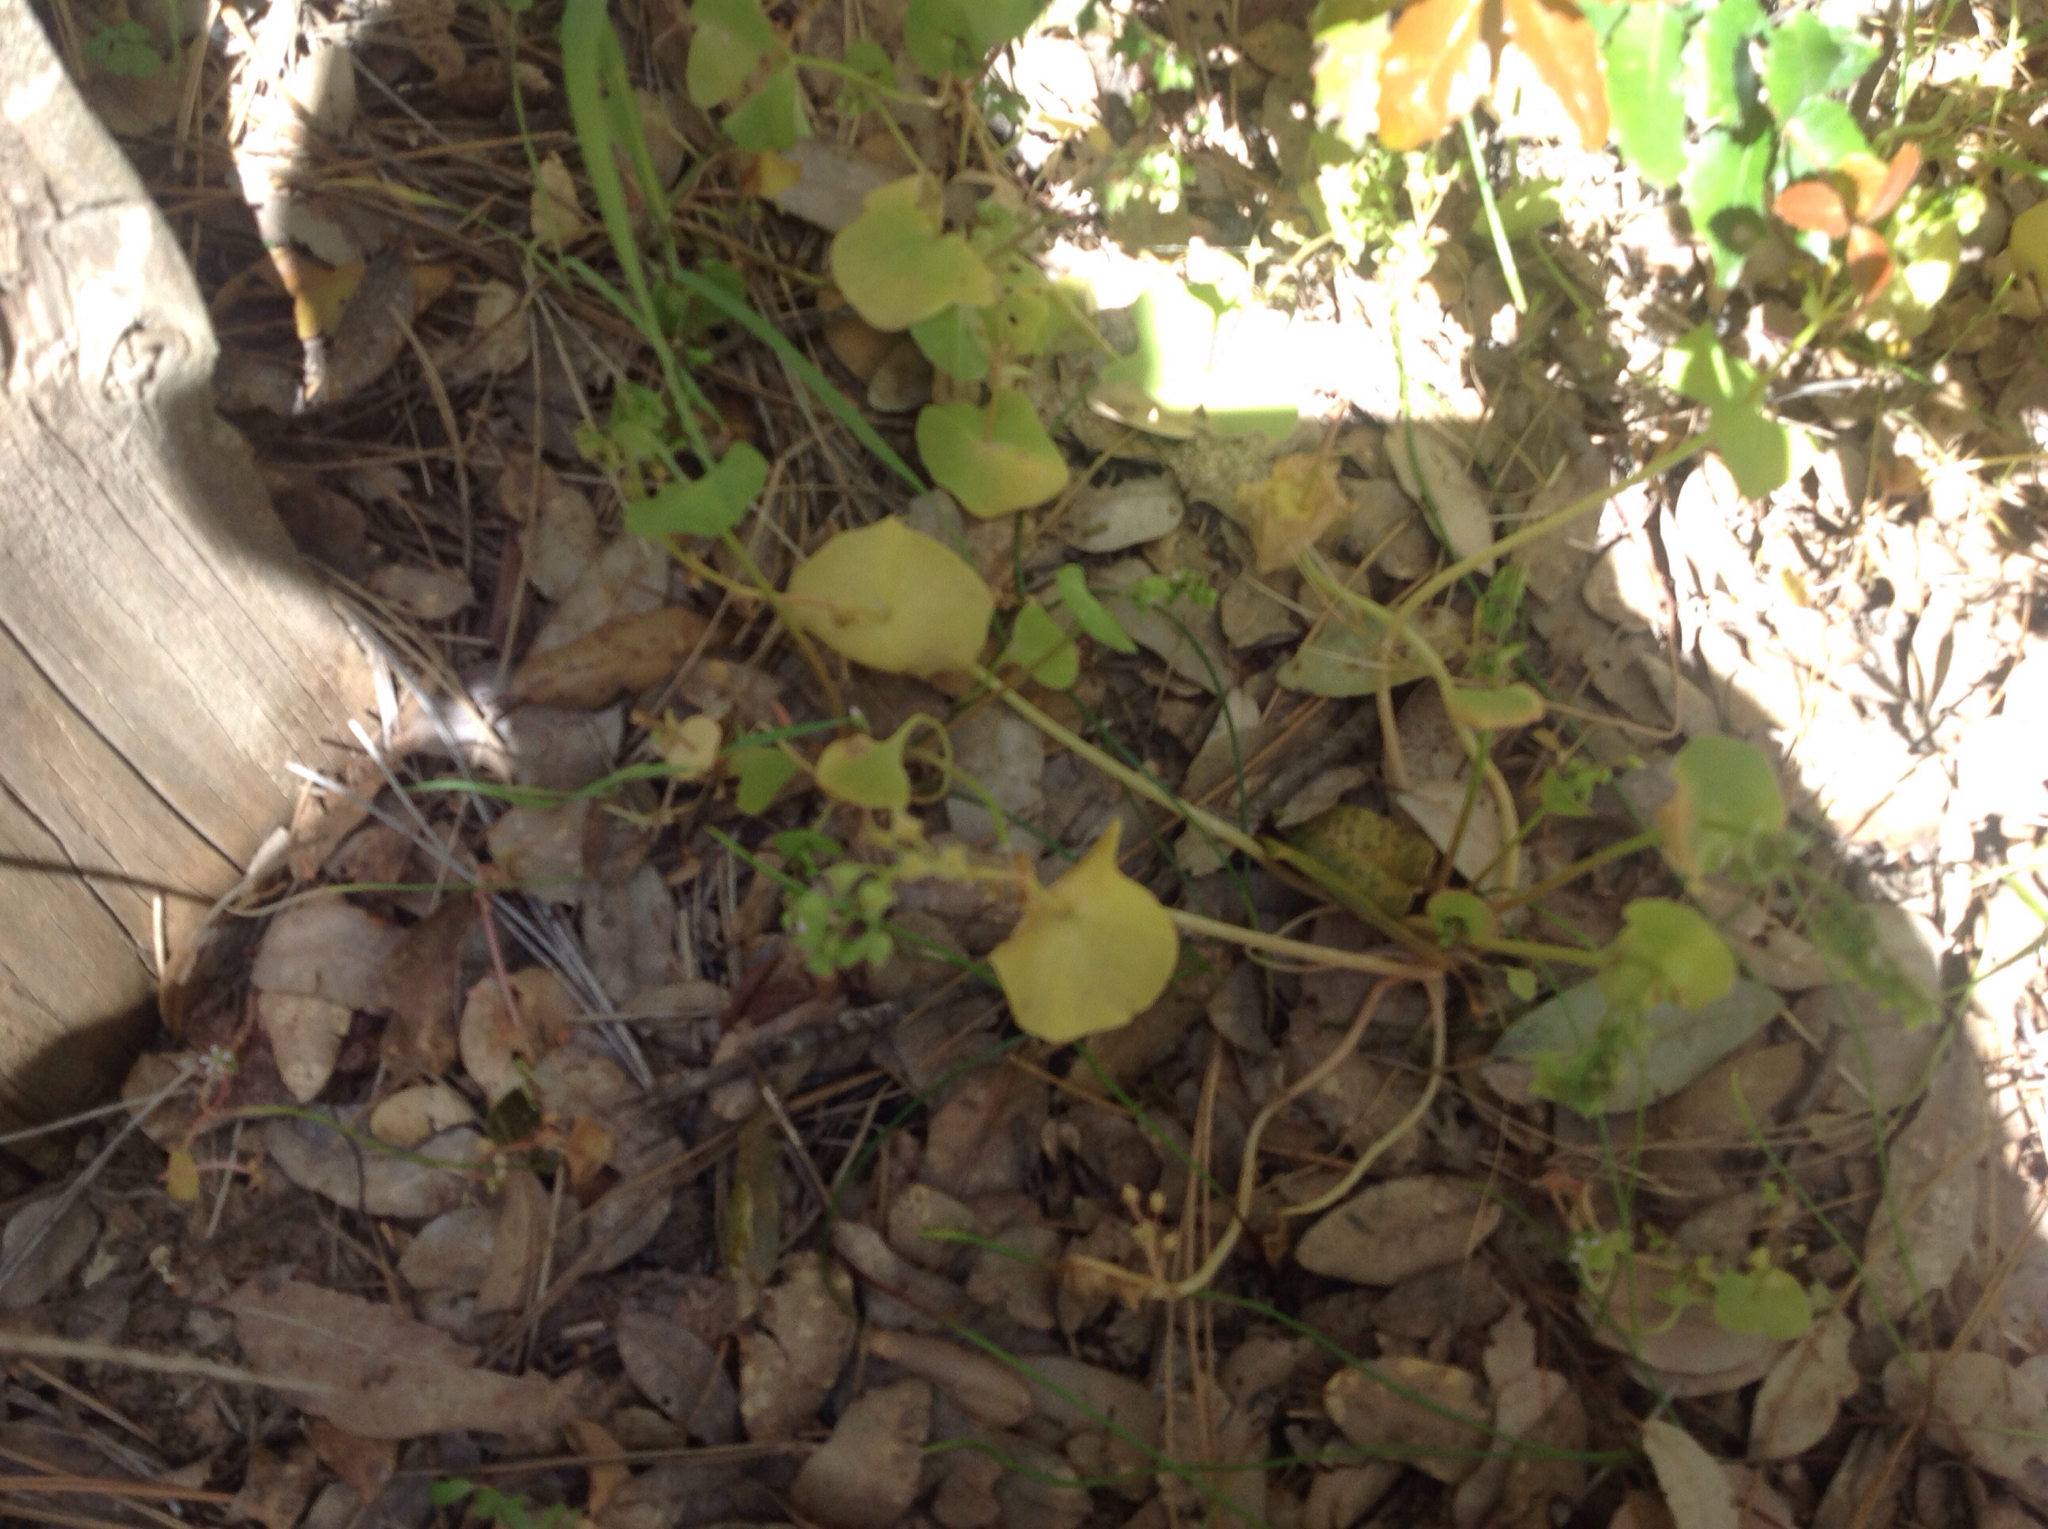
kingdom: Plantae
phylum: Tracheophyta
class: Magnoliopsida
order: Caryophyllales
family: Montiaceae
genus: Claytonia
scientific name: Claytonia perfoliata
